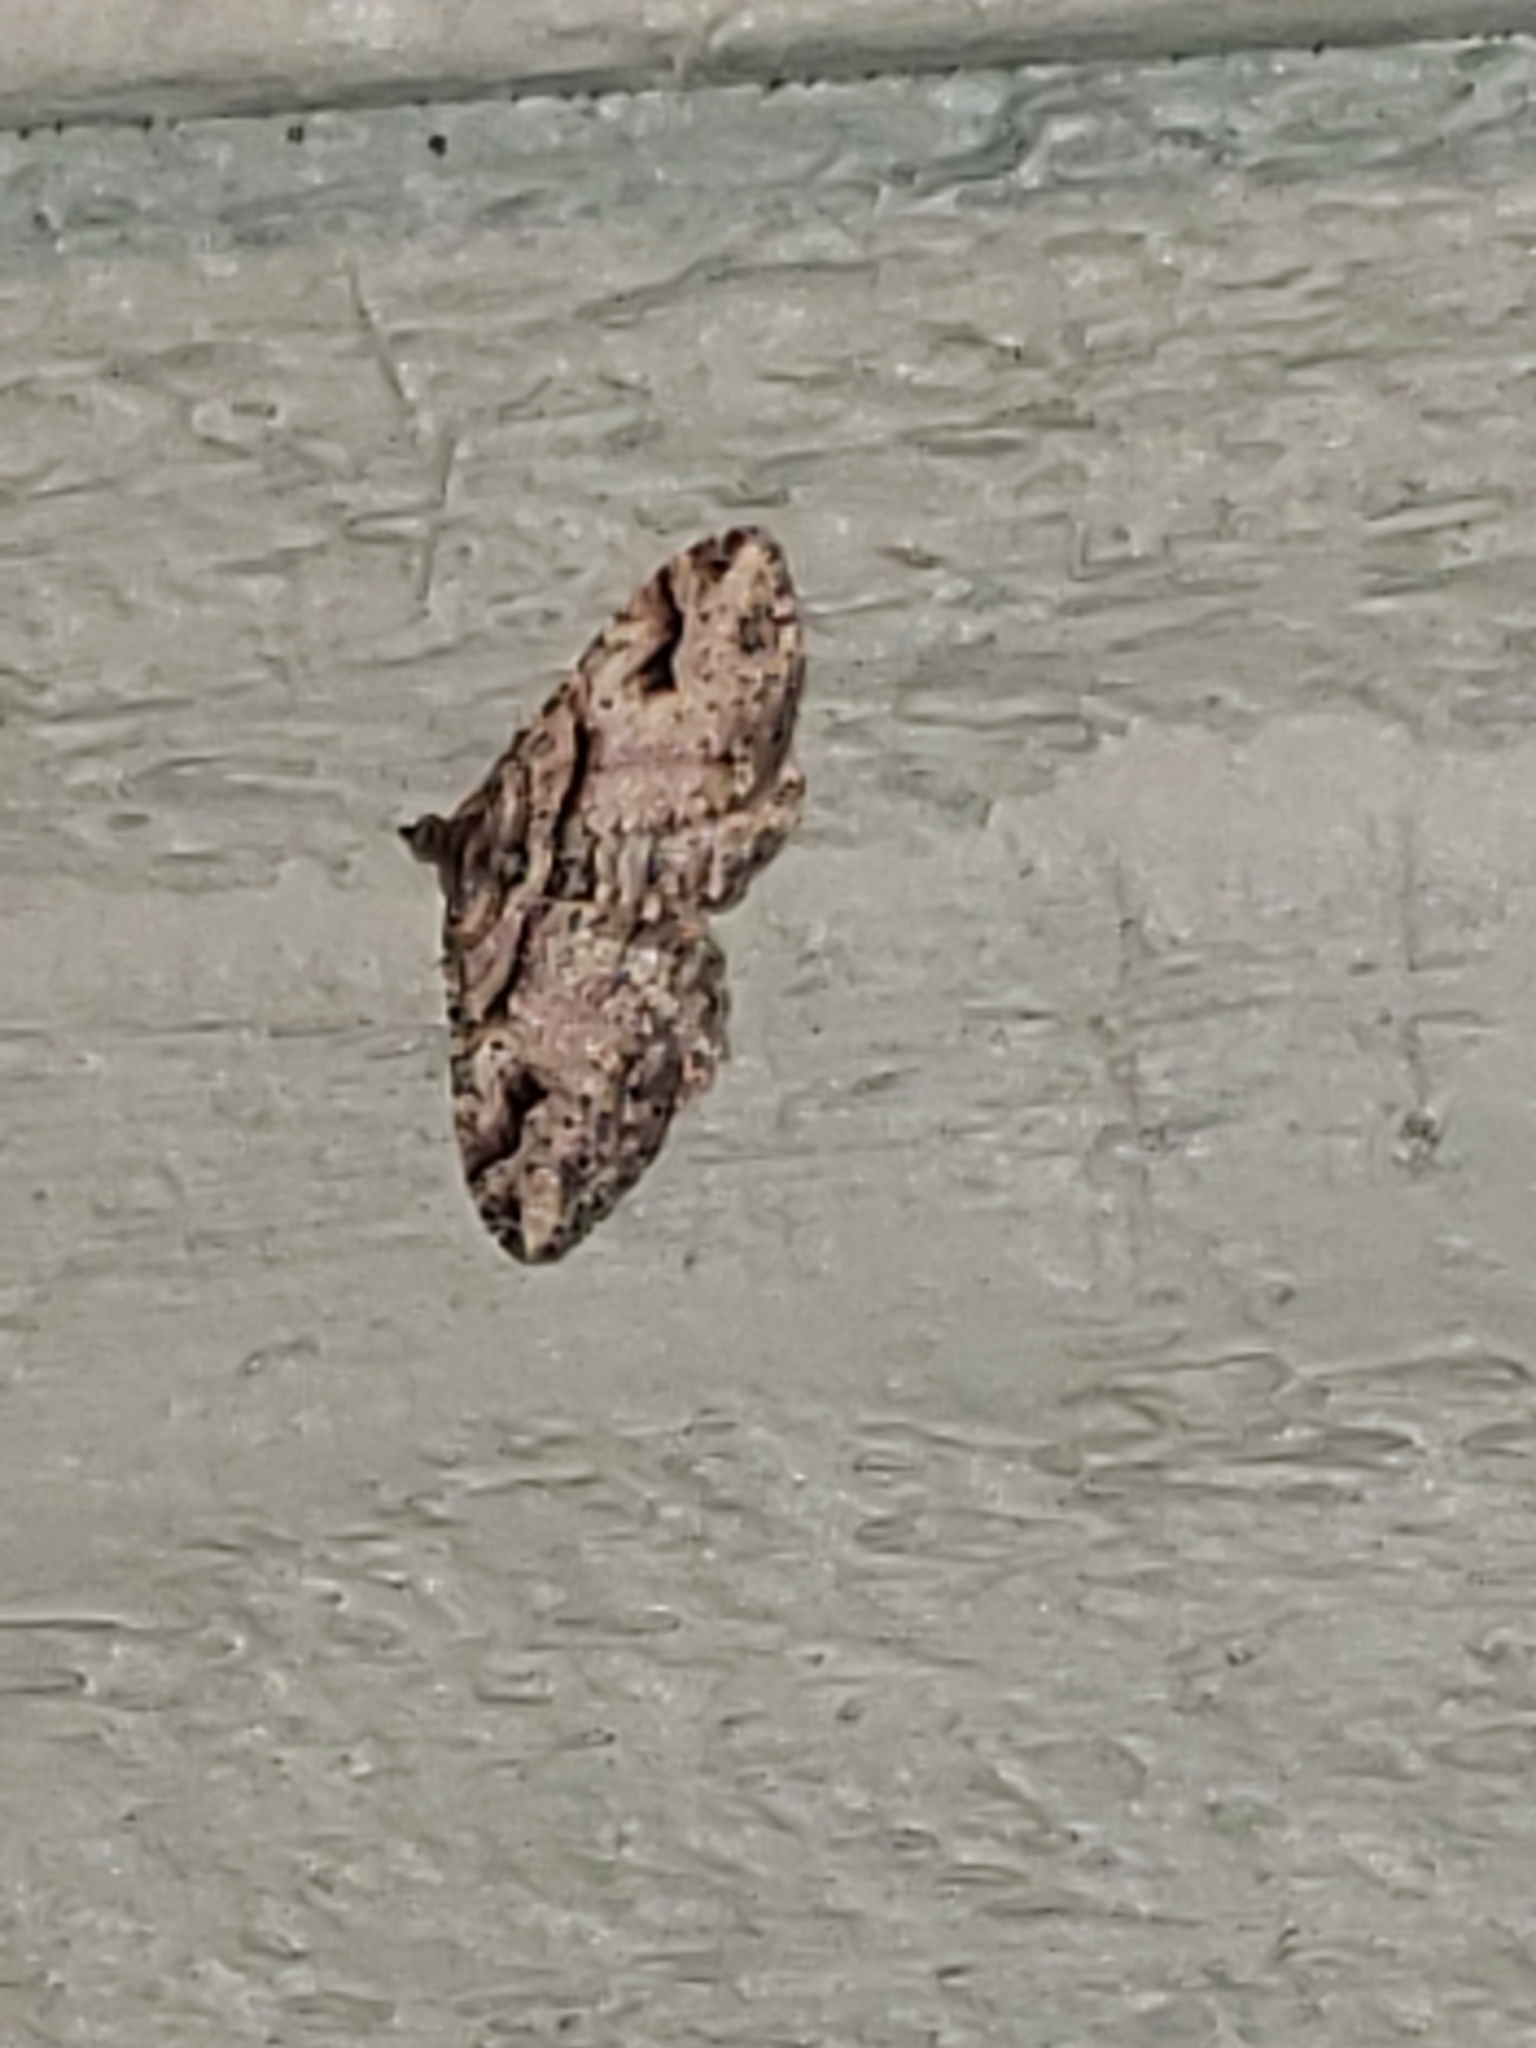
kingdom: Animalia
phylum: Arthropoda
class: Insecta
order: Lepidoptera
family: Geometridae
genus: Costaconvexa
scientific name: Costaconvexa centrostrigaria
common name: Bent-line carpet
